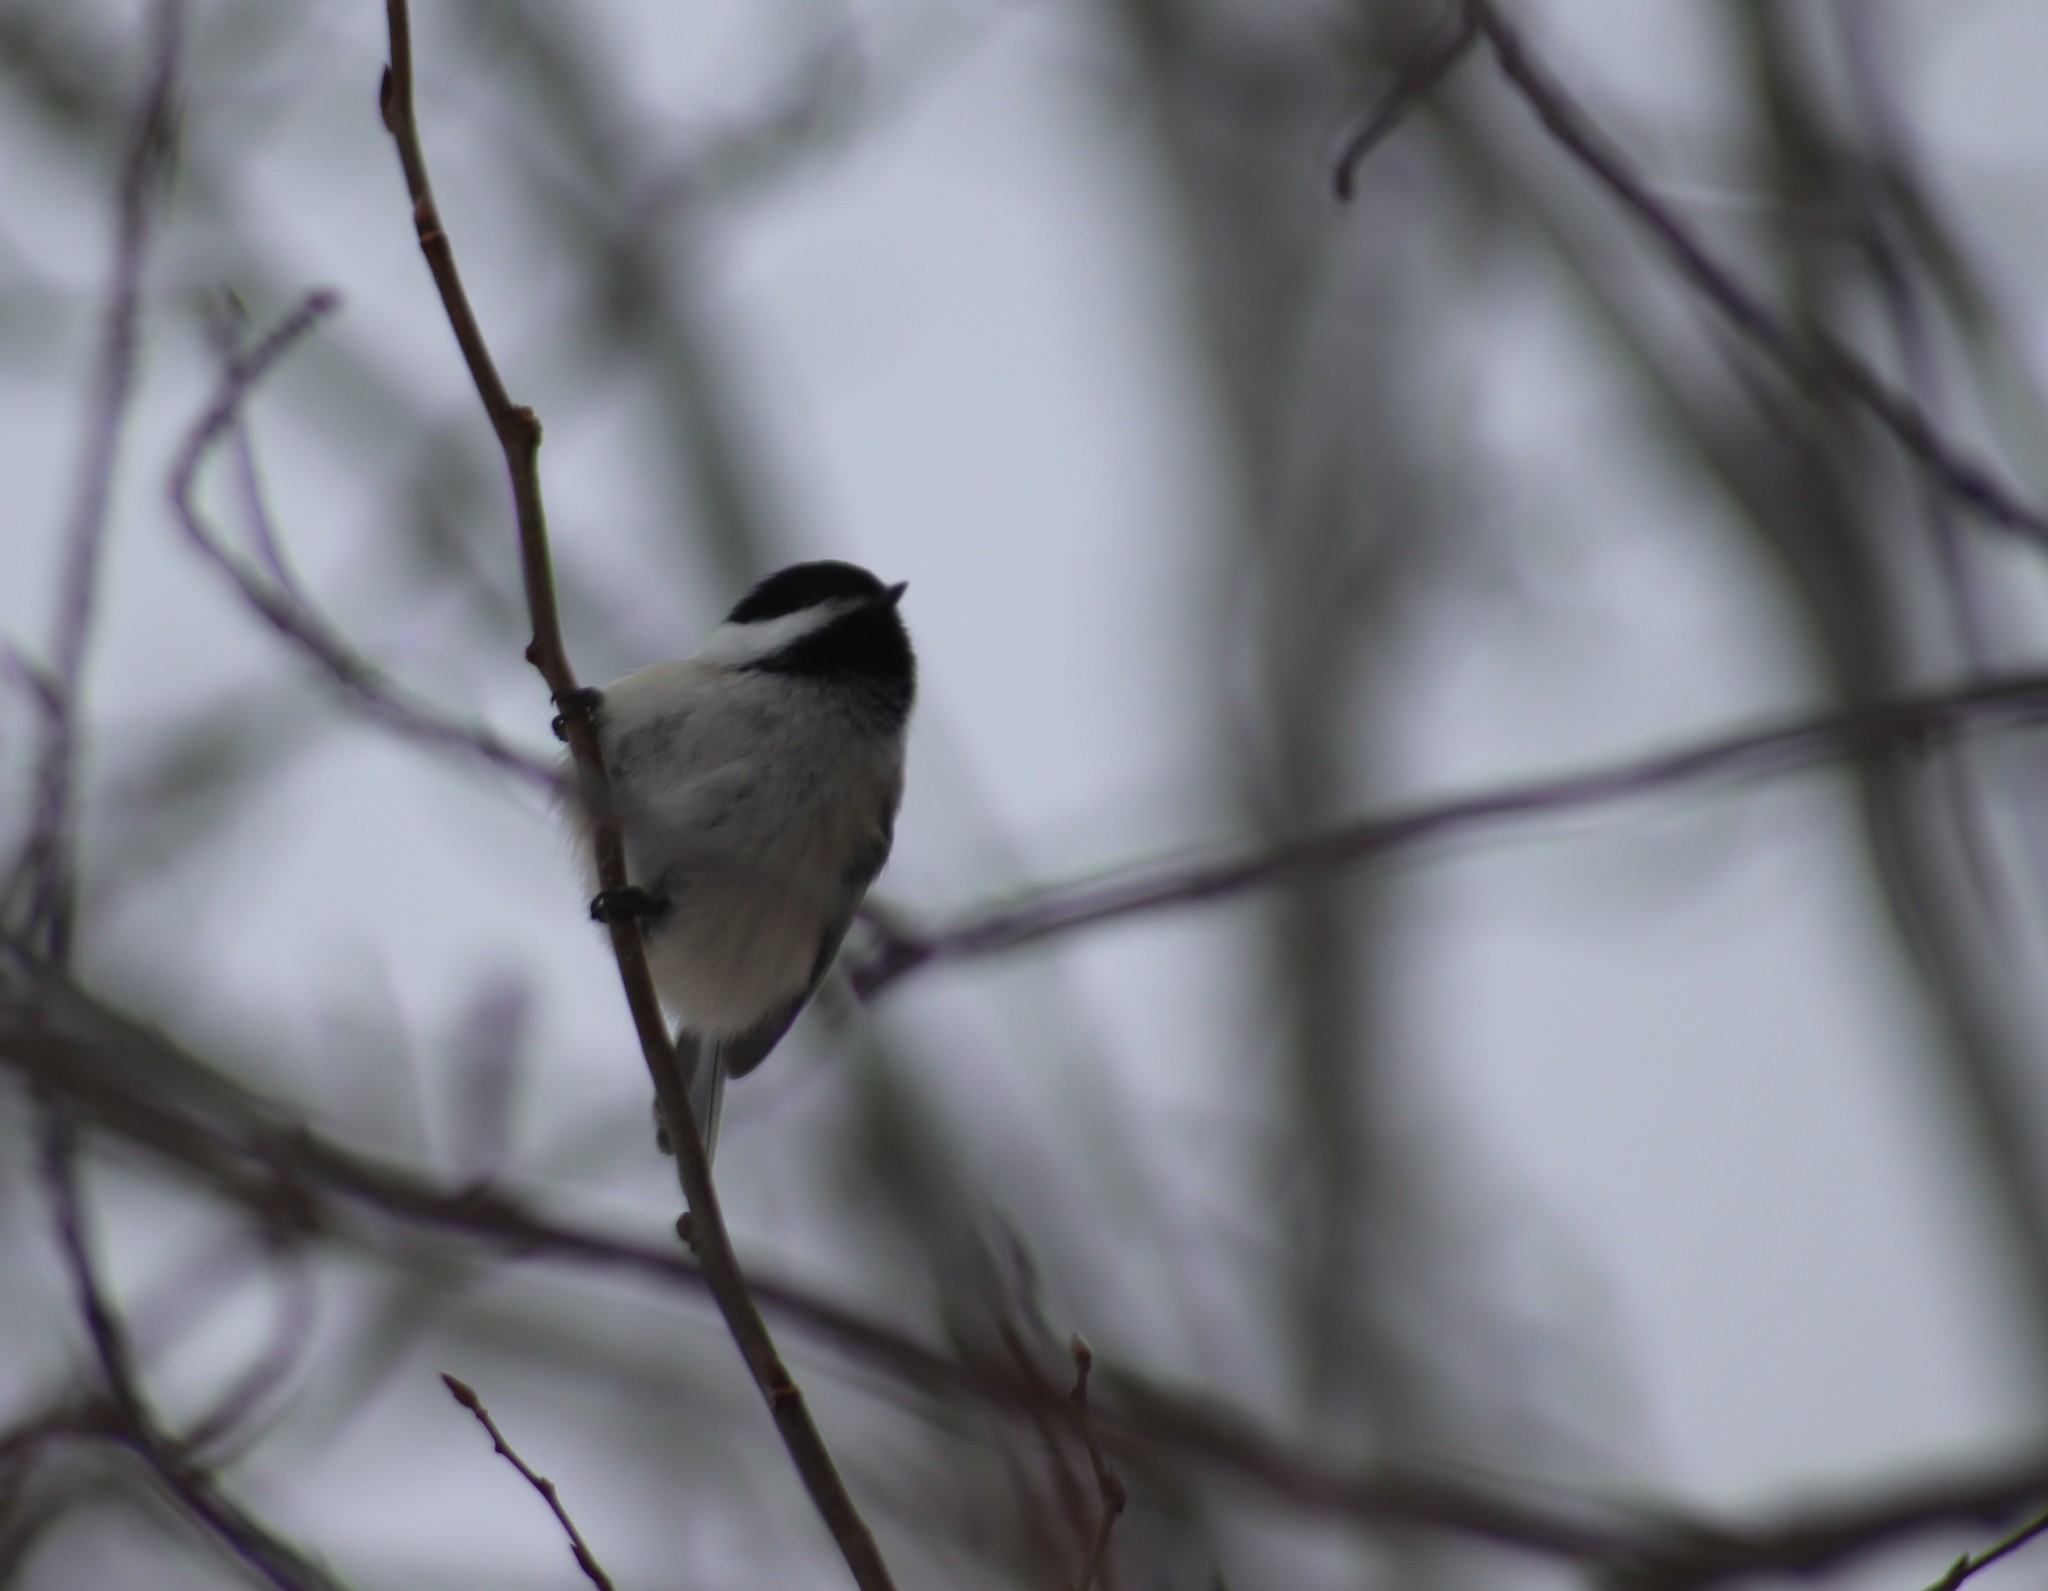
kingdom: Animalia
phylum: Chordata
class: Aves
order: Passeriformes
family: Paridae
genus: Poecile
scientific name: Poecile atricapillus
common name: Black-capped chickadee
